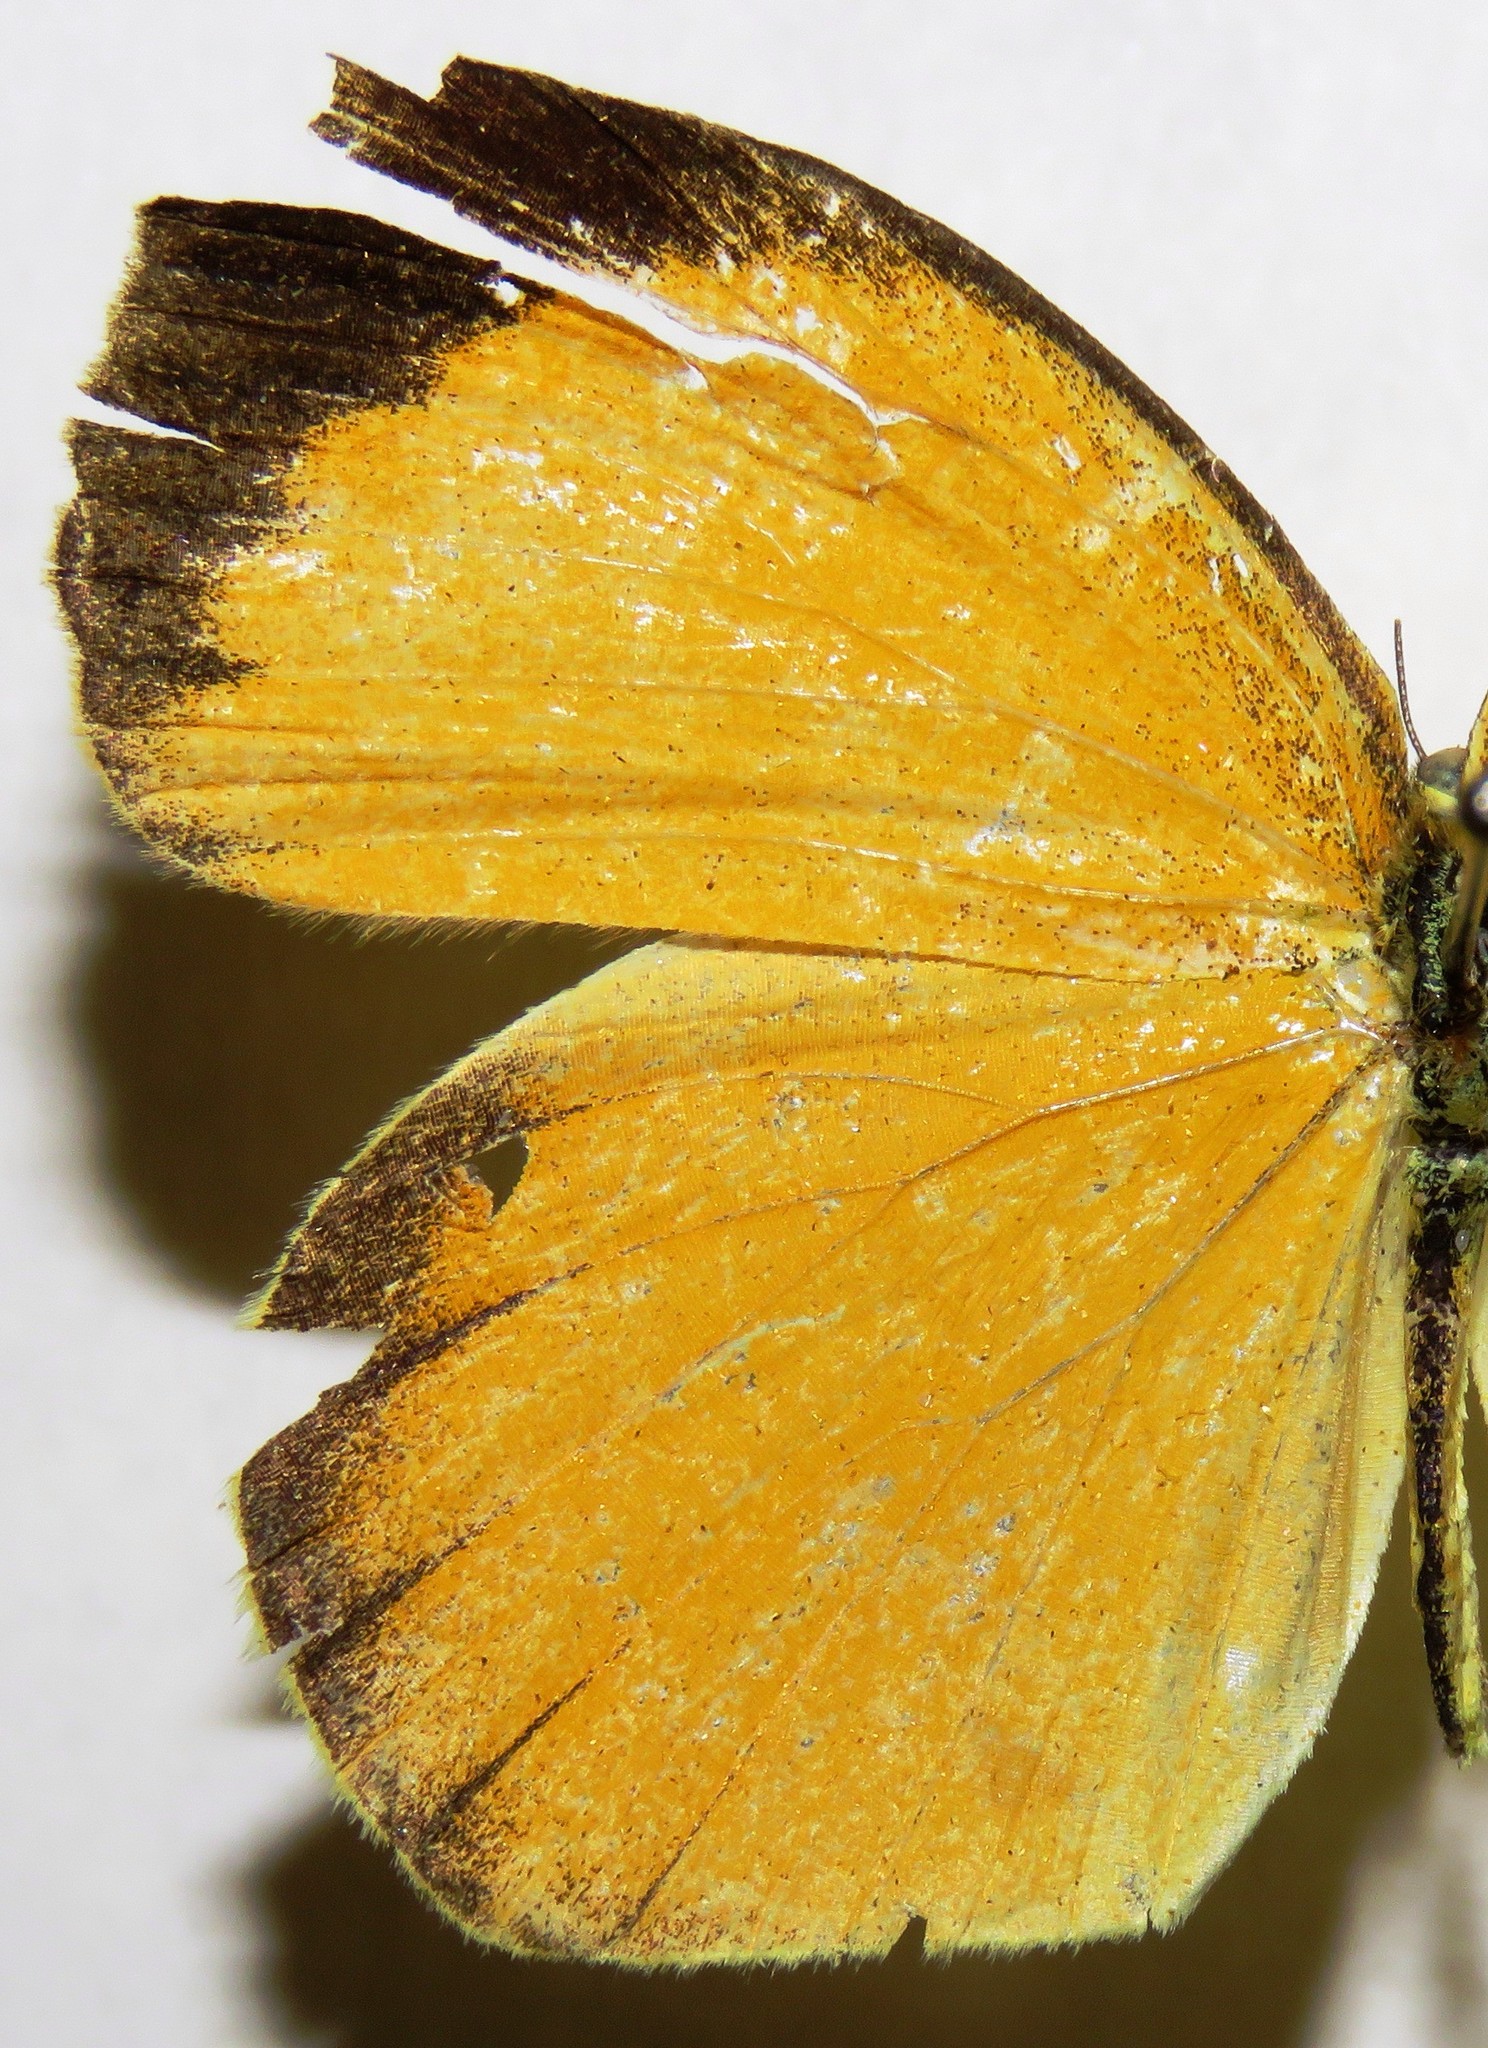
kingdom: Animalia
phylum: Arthropoda
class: Insecta
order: Lepidoptera
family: Pieridae
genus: Pyrisitia
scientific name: Pyrisitia proterpia
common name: Tailed orange
